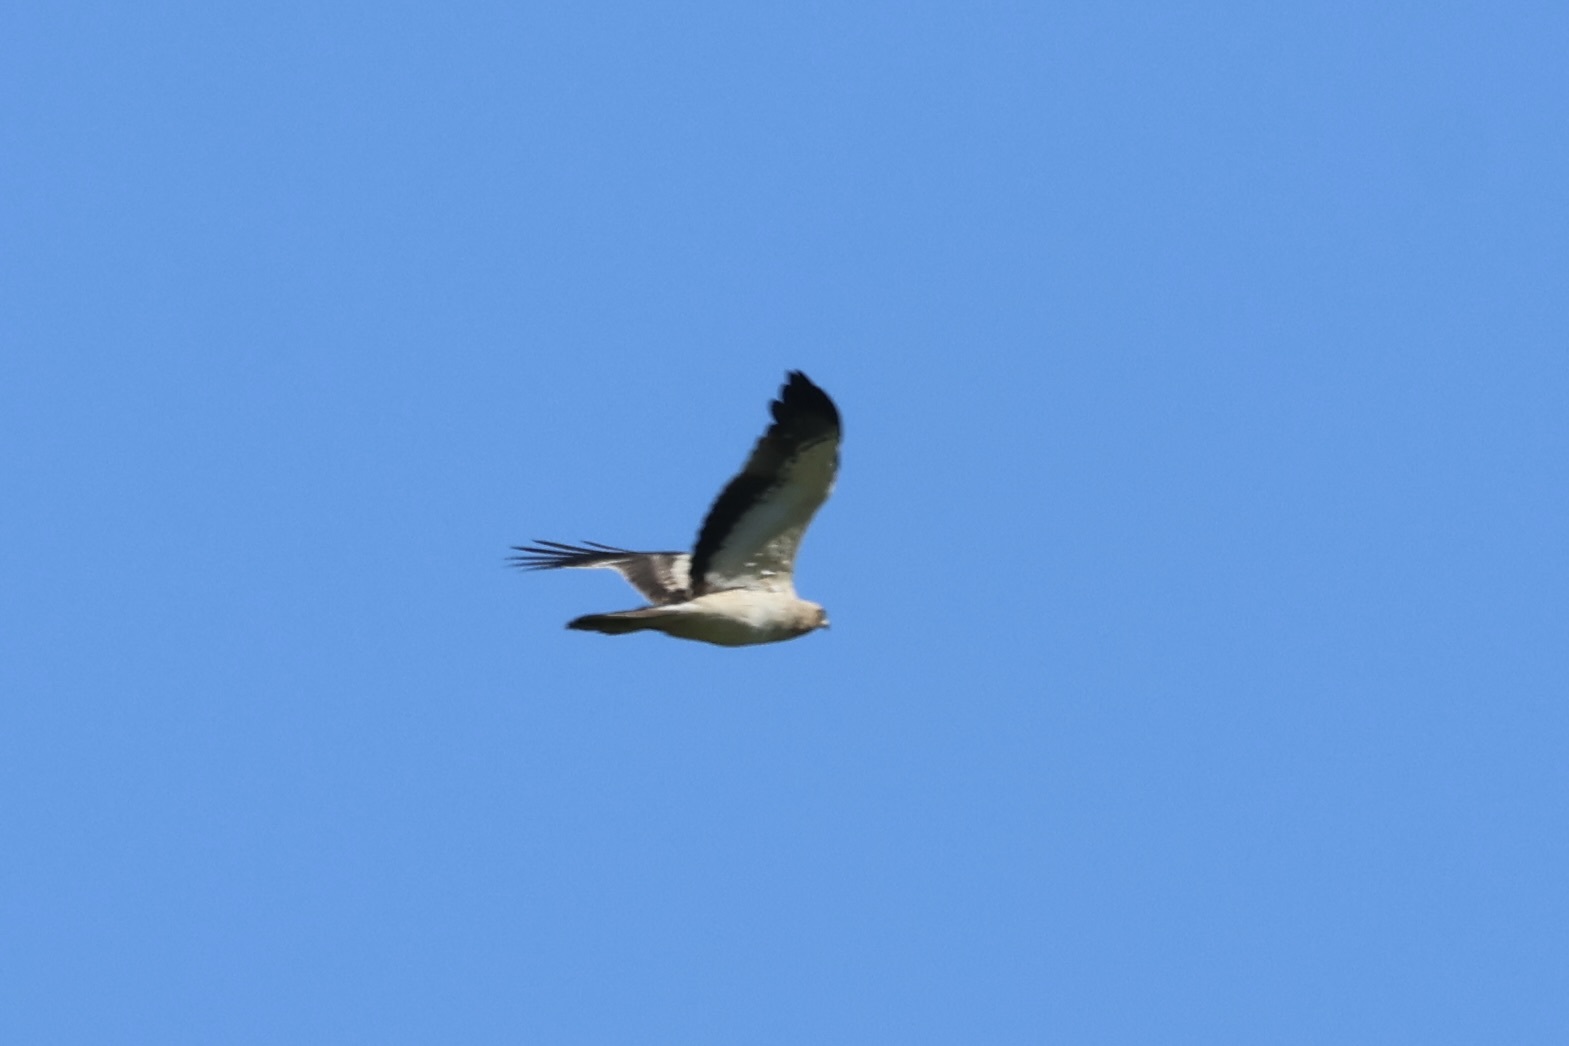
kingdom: Animalia
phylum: Chordata
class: Aves
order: Accipitriformes
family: Accipitridae
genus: Hieraaetus
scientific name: Hieraaetus pennatus
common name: Booted eagle
